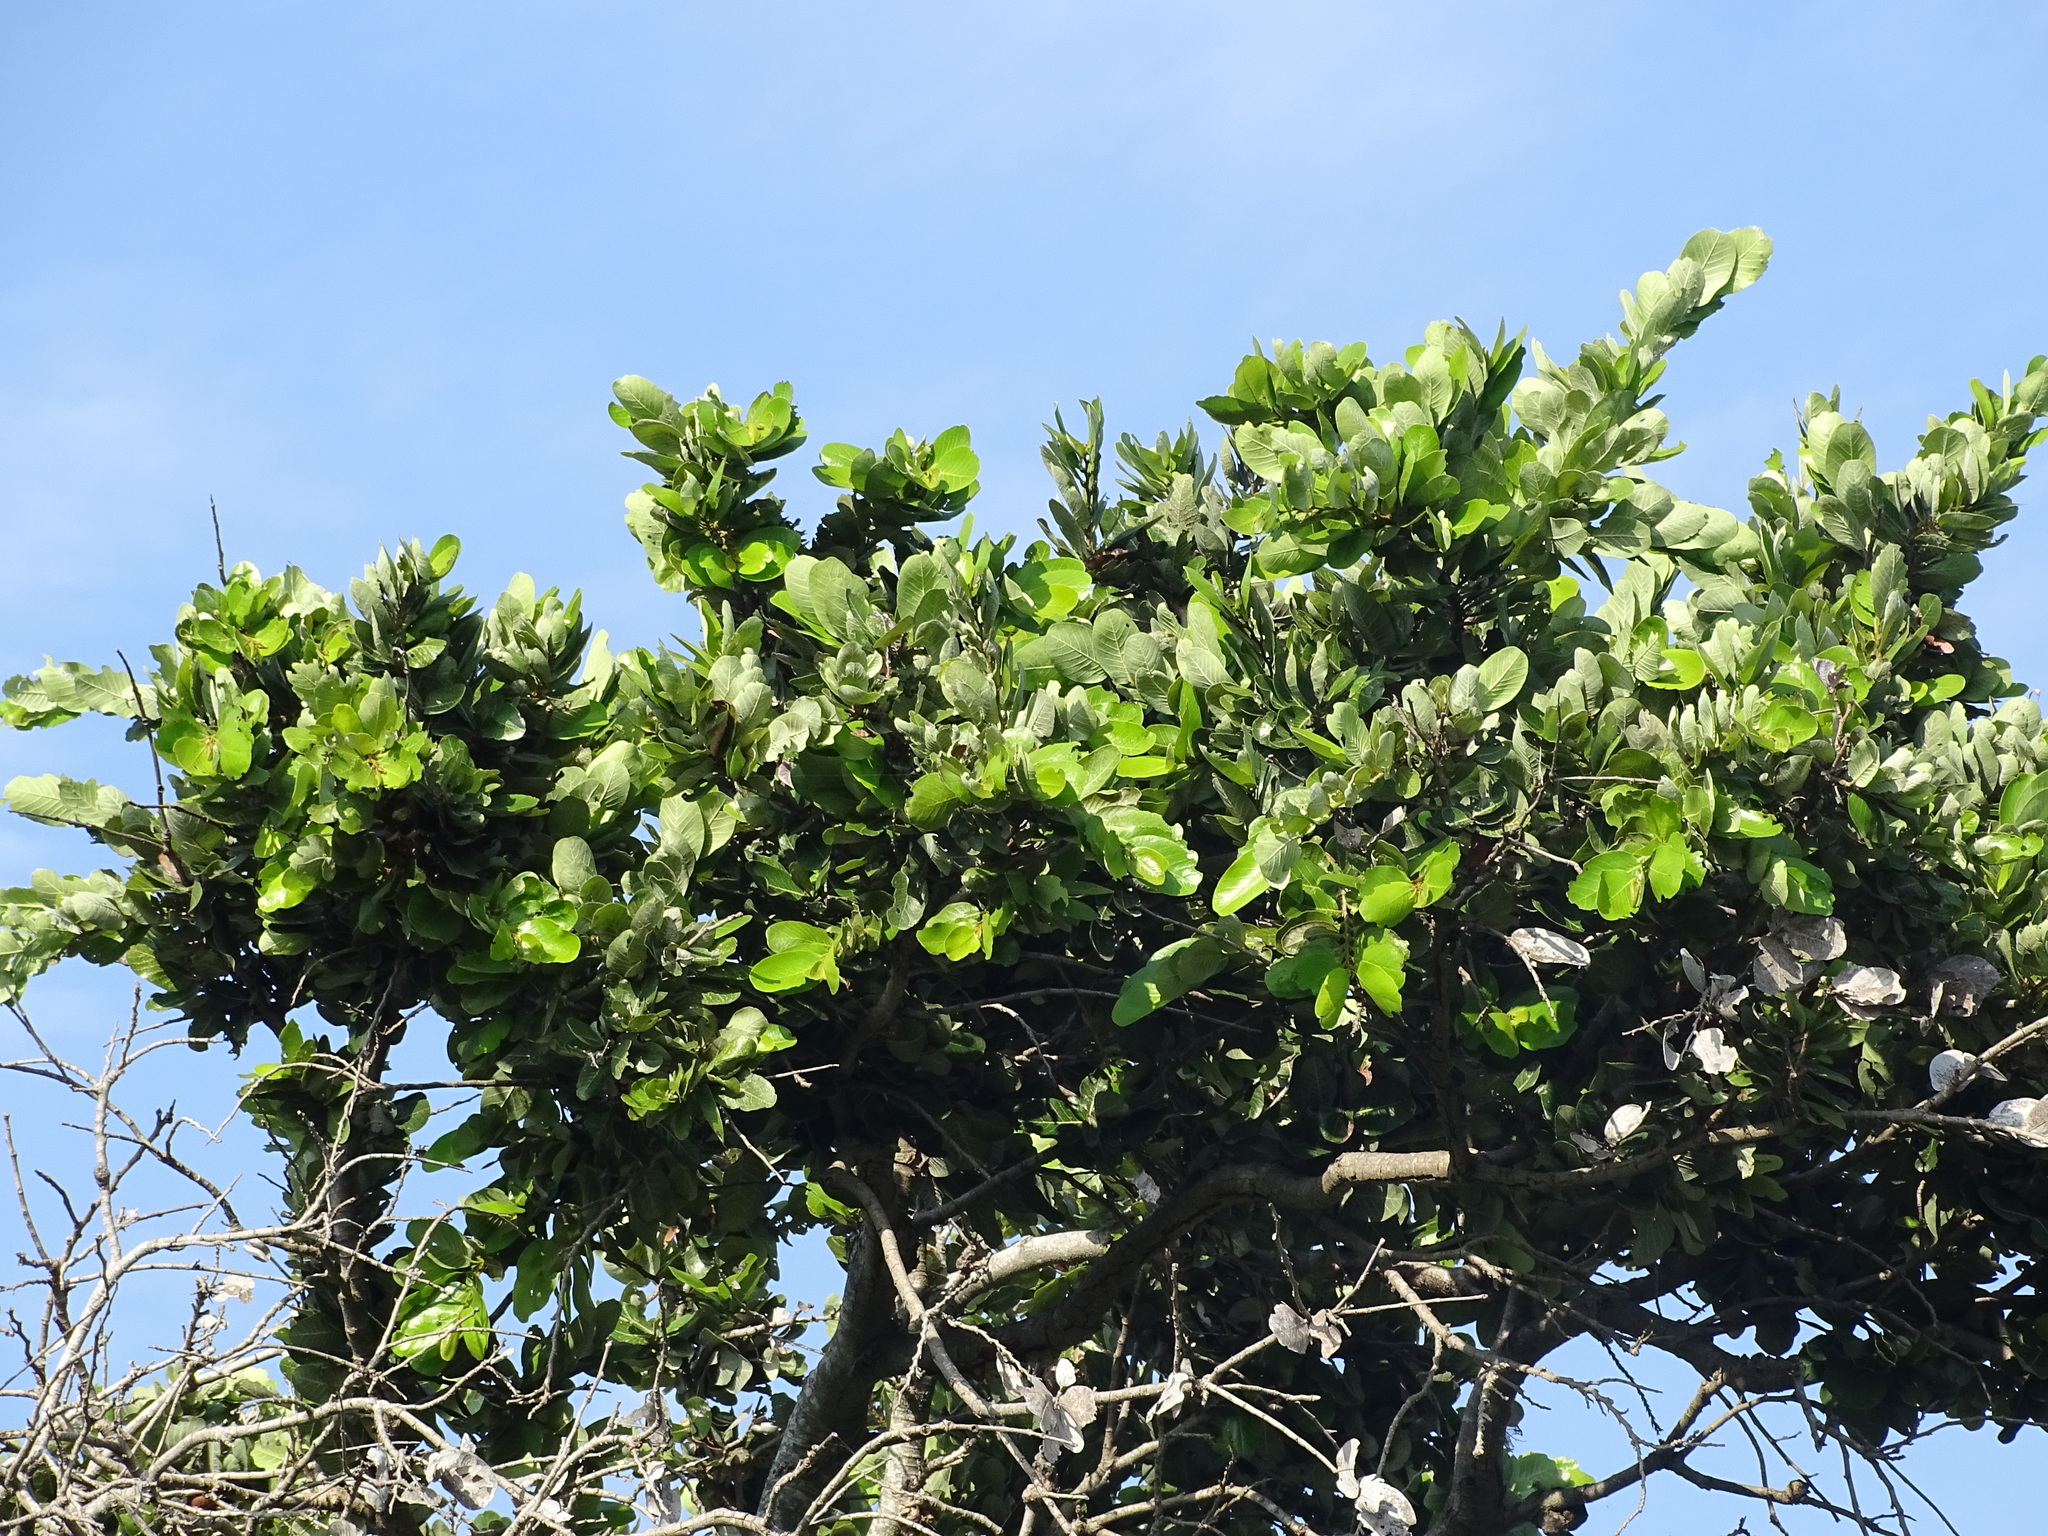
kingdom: Plantae
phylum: Tracheophyta
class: Magnoliopsida
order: Malpighiales
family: Chrysobalanaceae
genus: Microdesmia
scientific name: Microdesmia arborea
